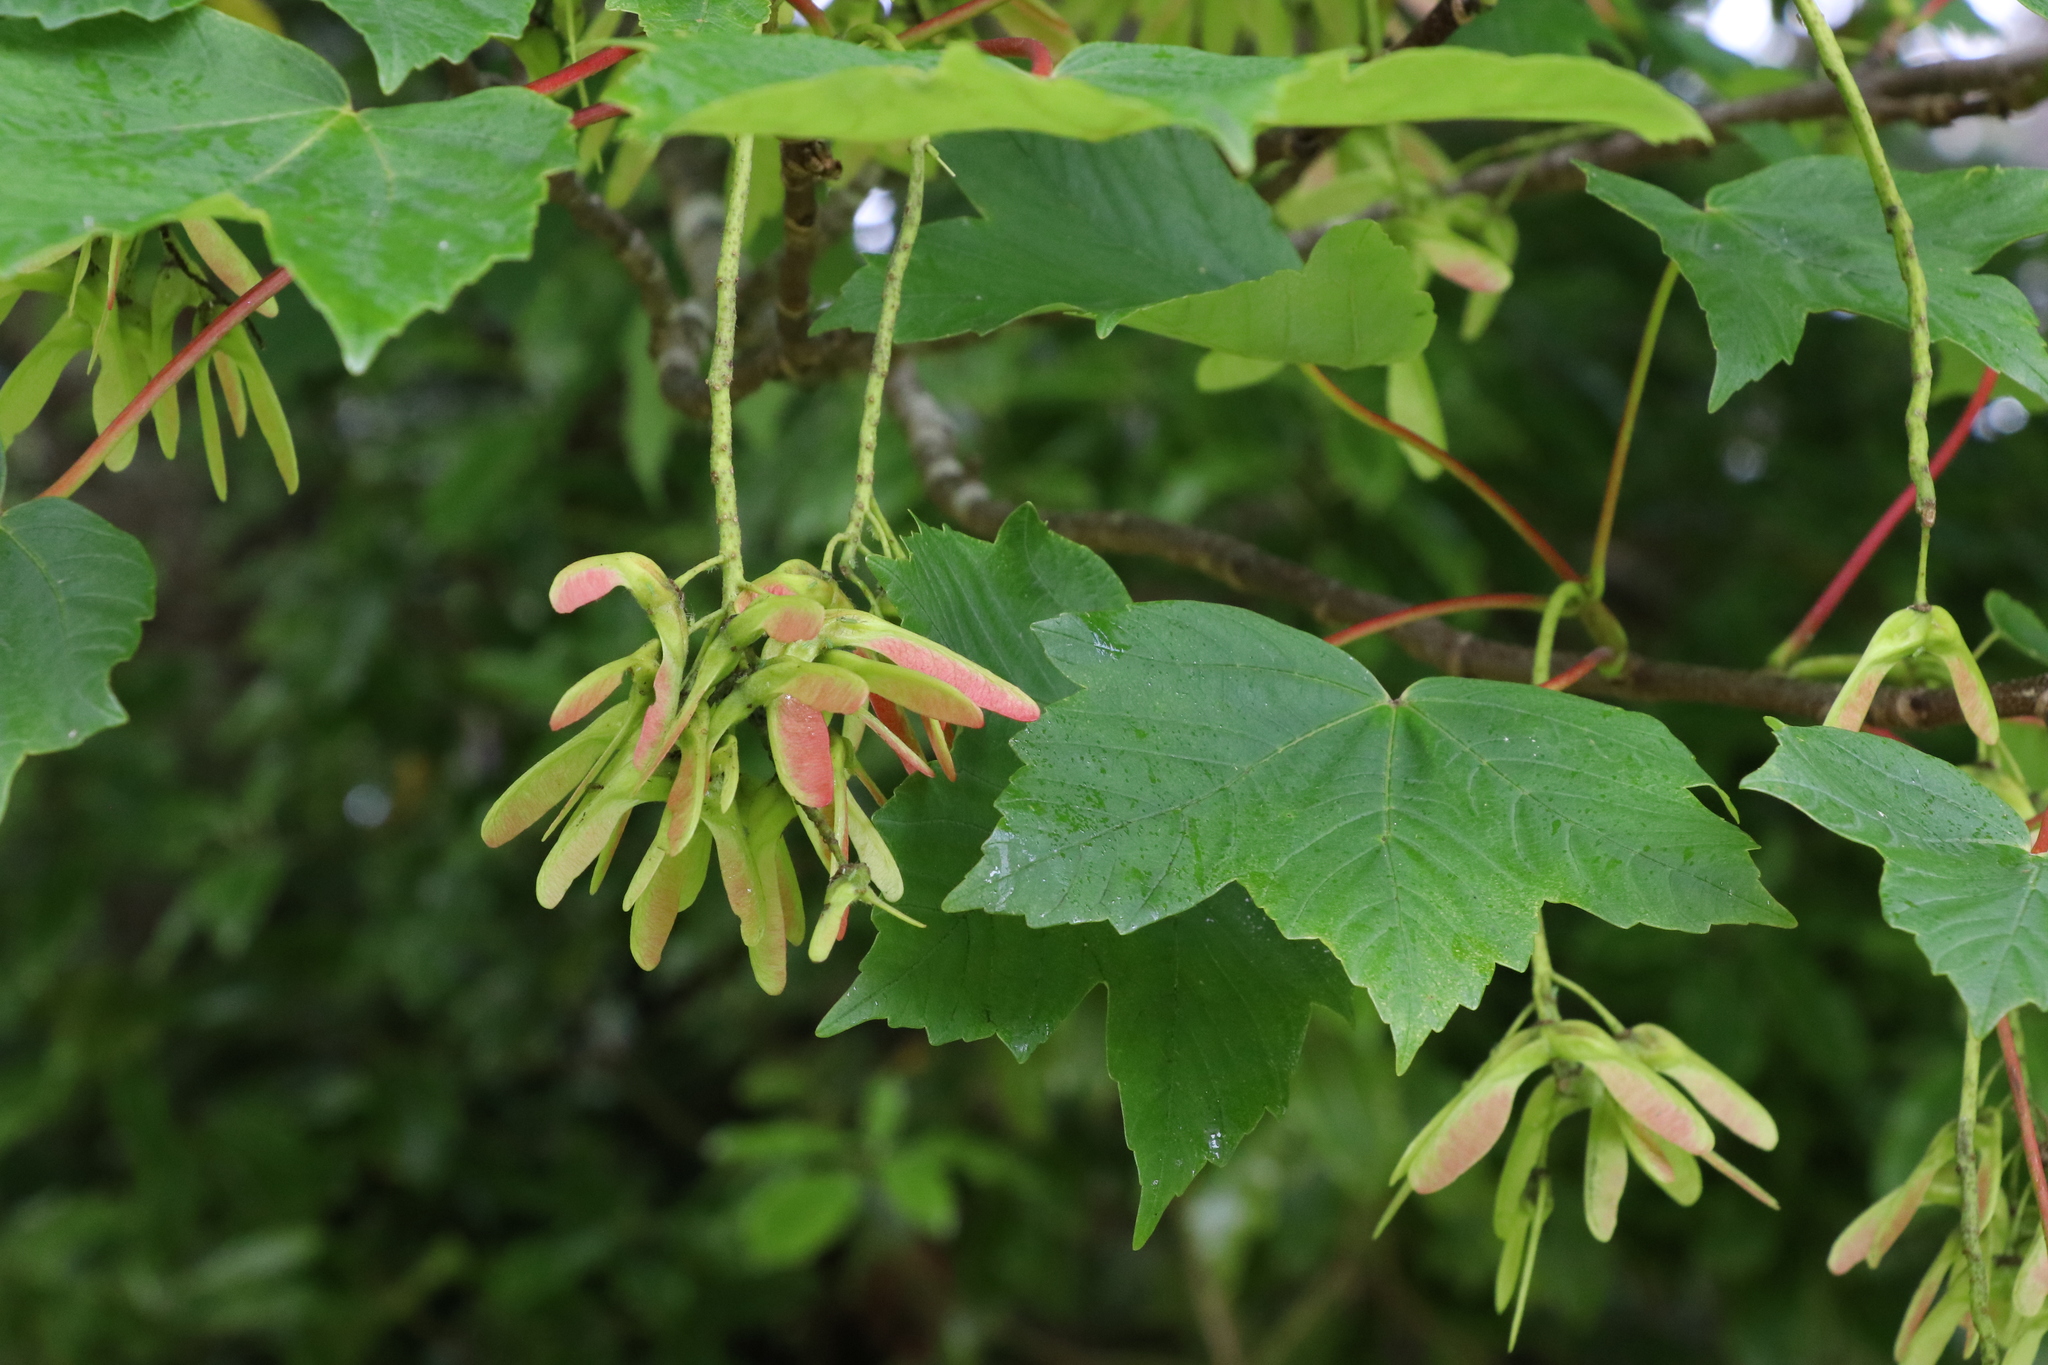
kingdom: Plantae
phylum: Tracheophyta
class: Magnoliopsida
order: Sapindales
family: Sapindaceae
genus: Acer
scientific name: Acer pseudoplatanus
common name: Sycamore
